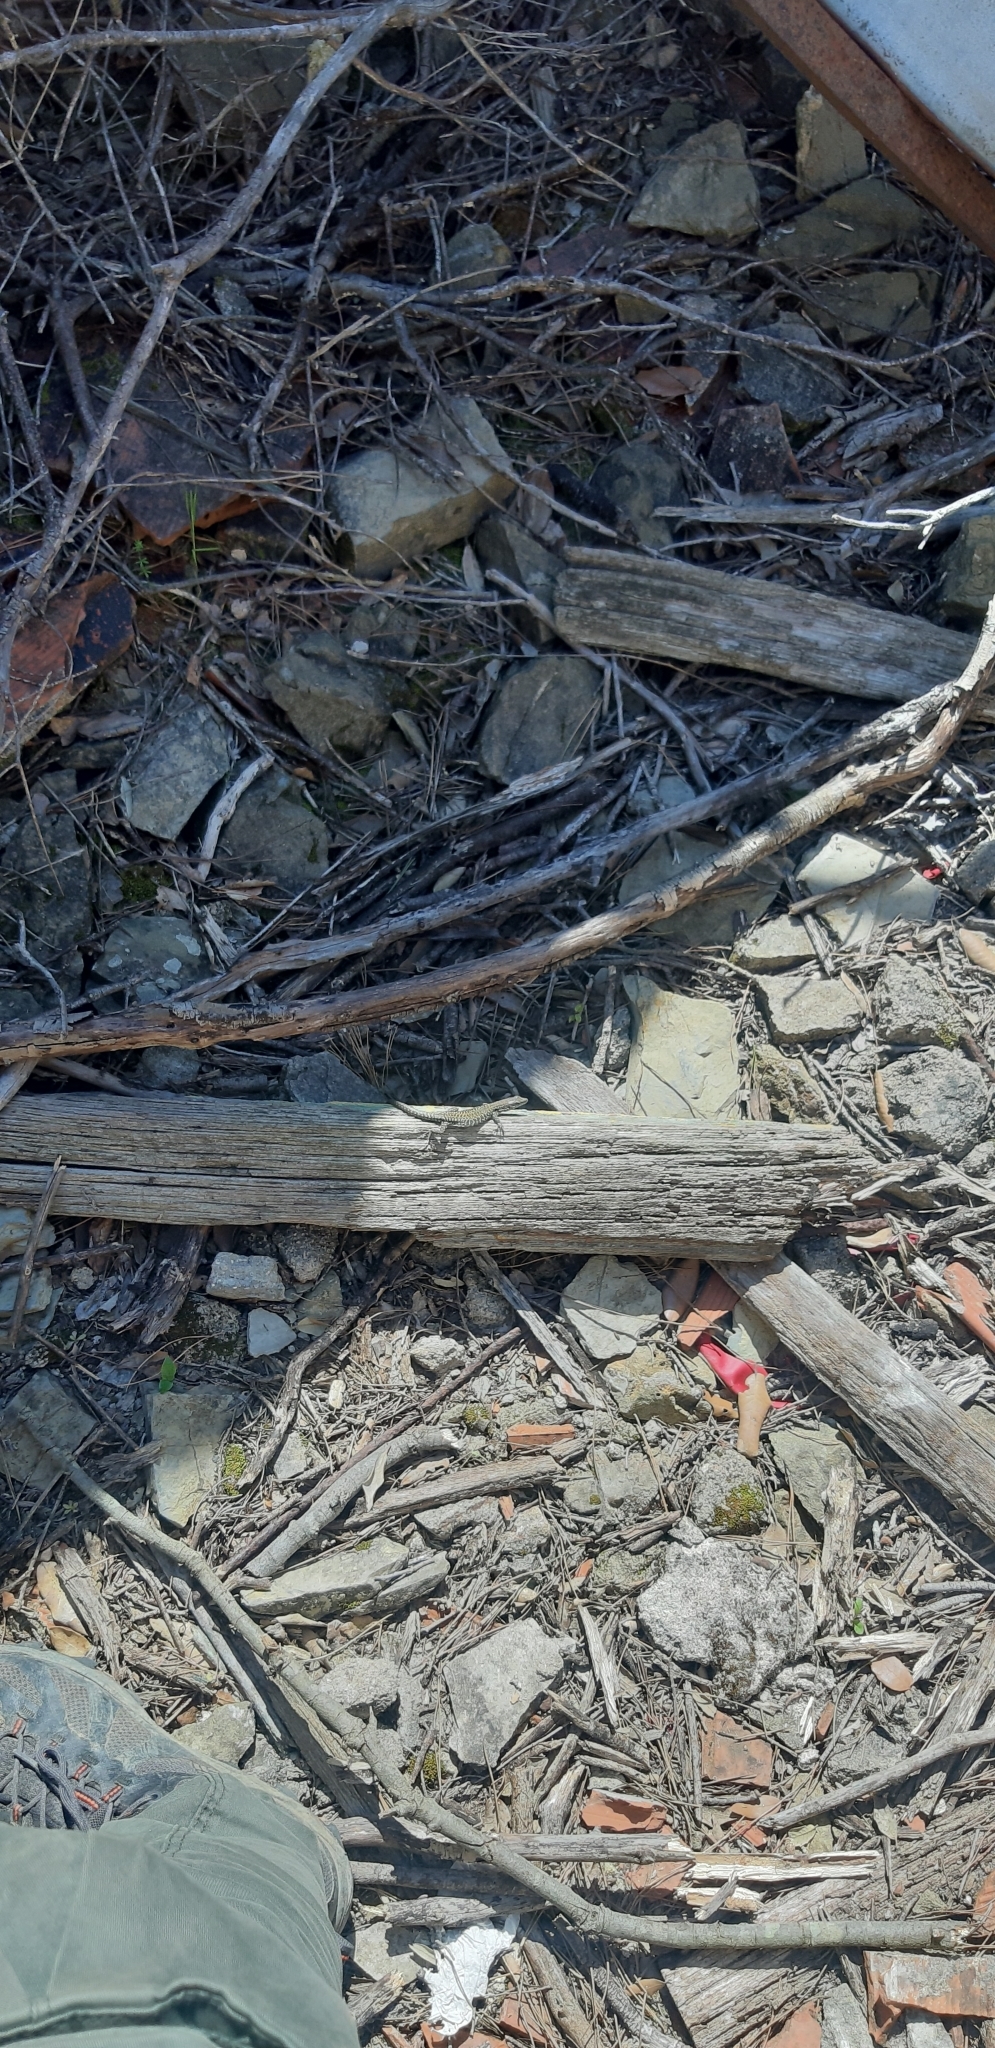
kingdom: Animalia
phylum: Chordata
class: Squamata
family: Lacertidae
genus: Podarcis
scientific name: Podarcis muralis
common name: Common wall lizard
